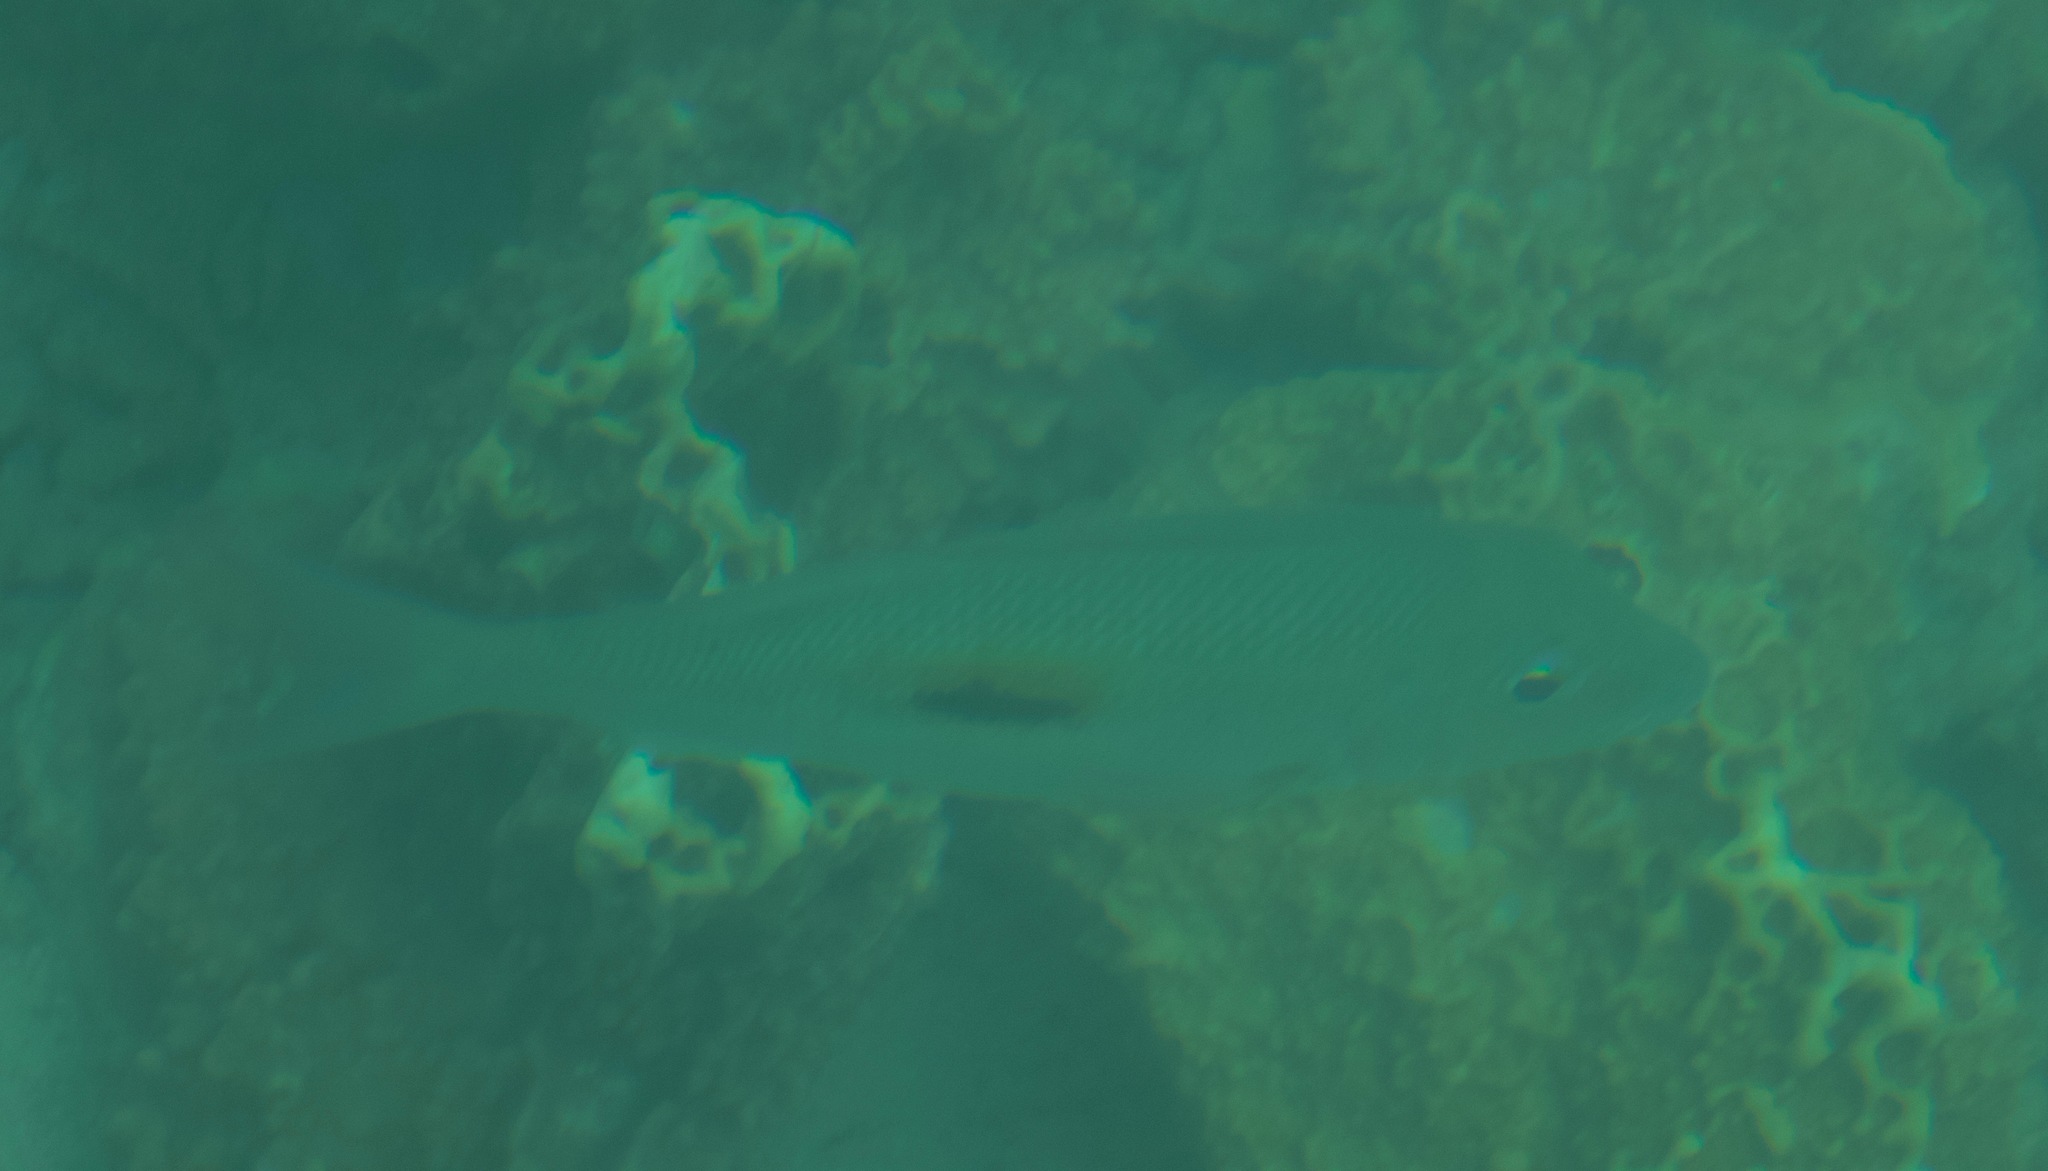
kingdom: Animalia
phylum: Chordata
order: Perciformes
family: Lethrinidae
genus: Lethrinus
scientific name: Lethrinus harak
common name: Blackspot emperor
